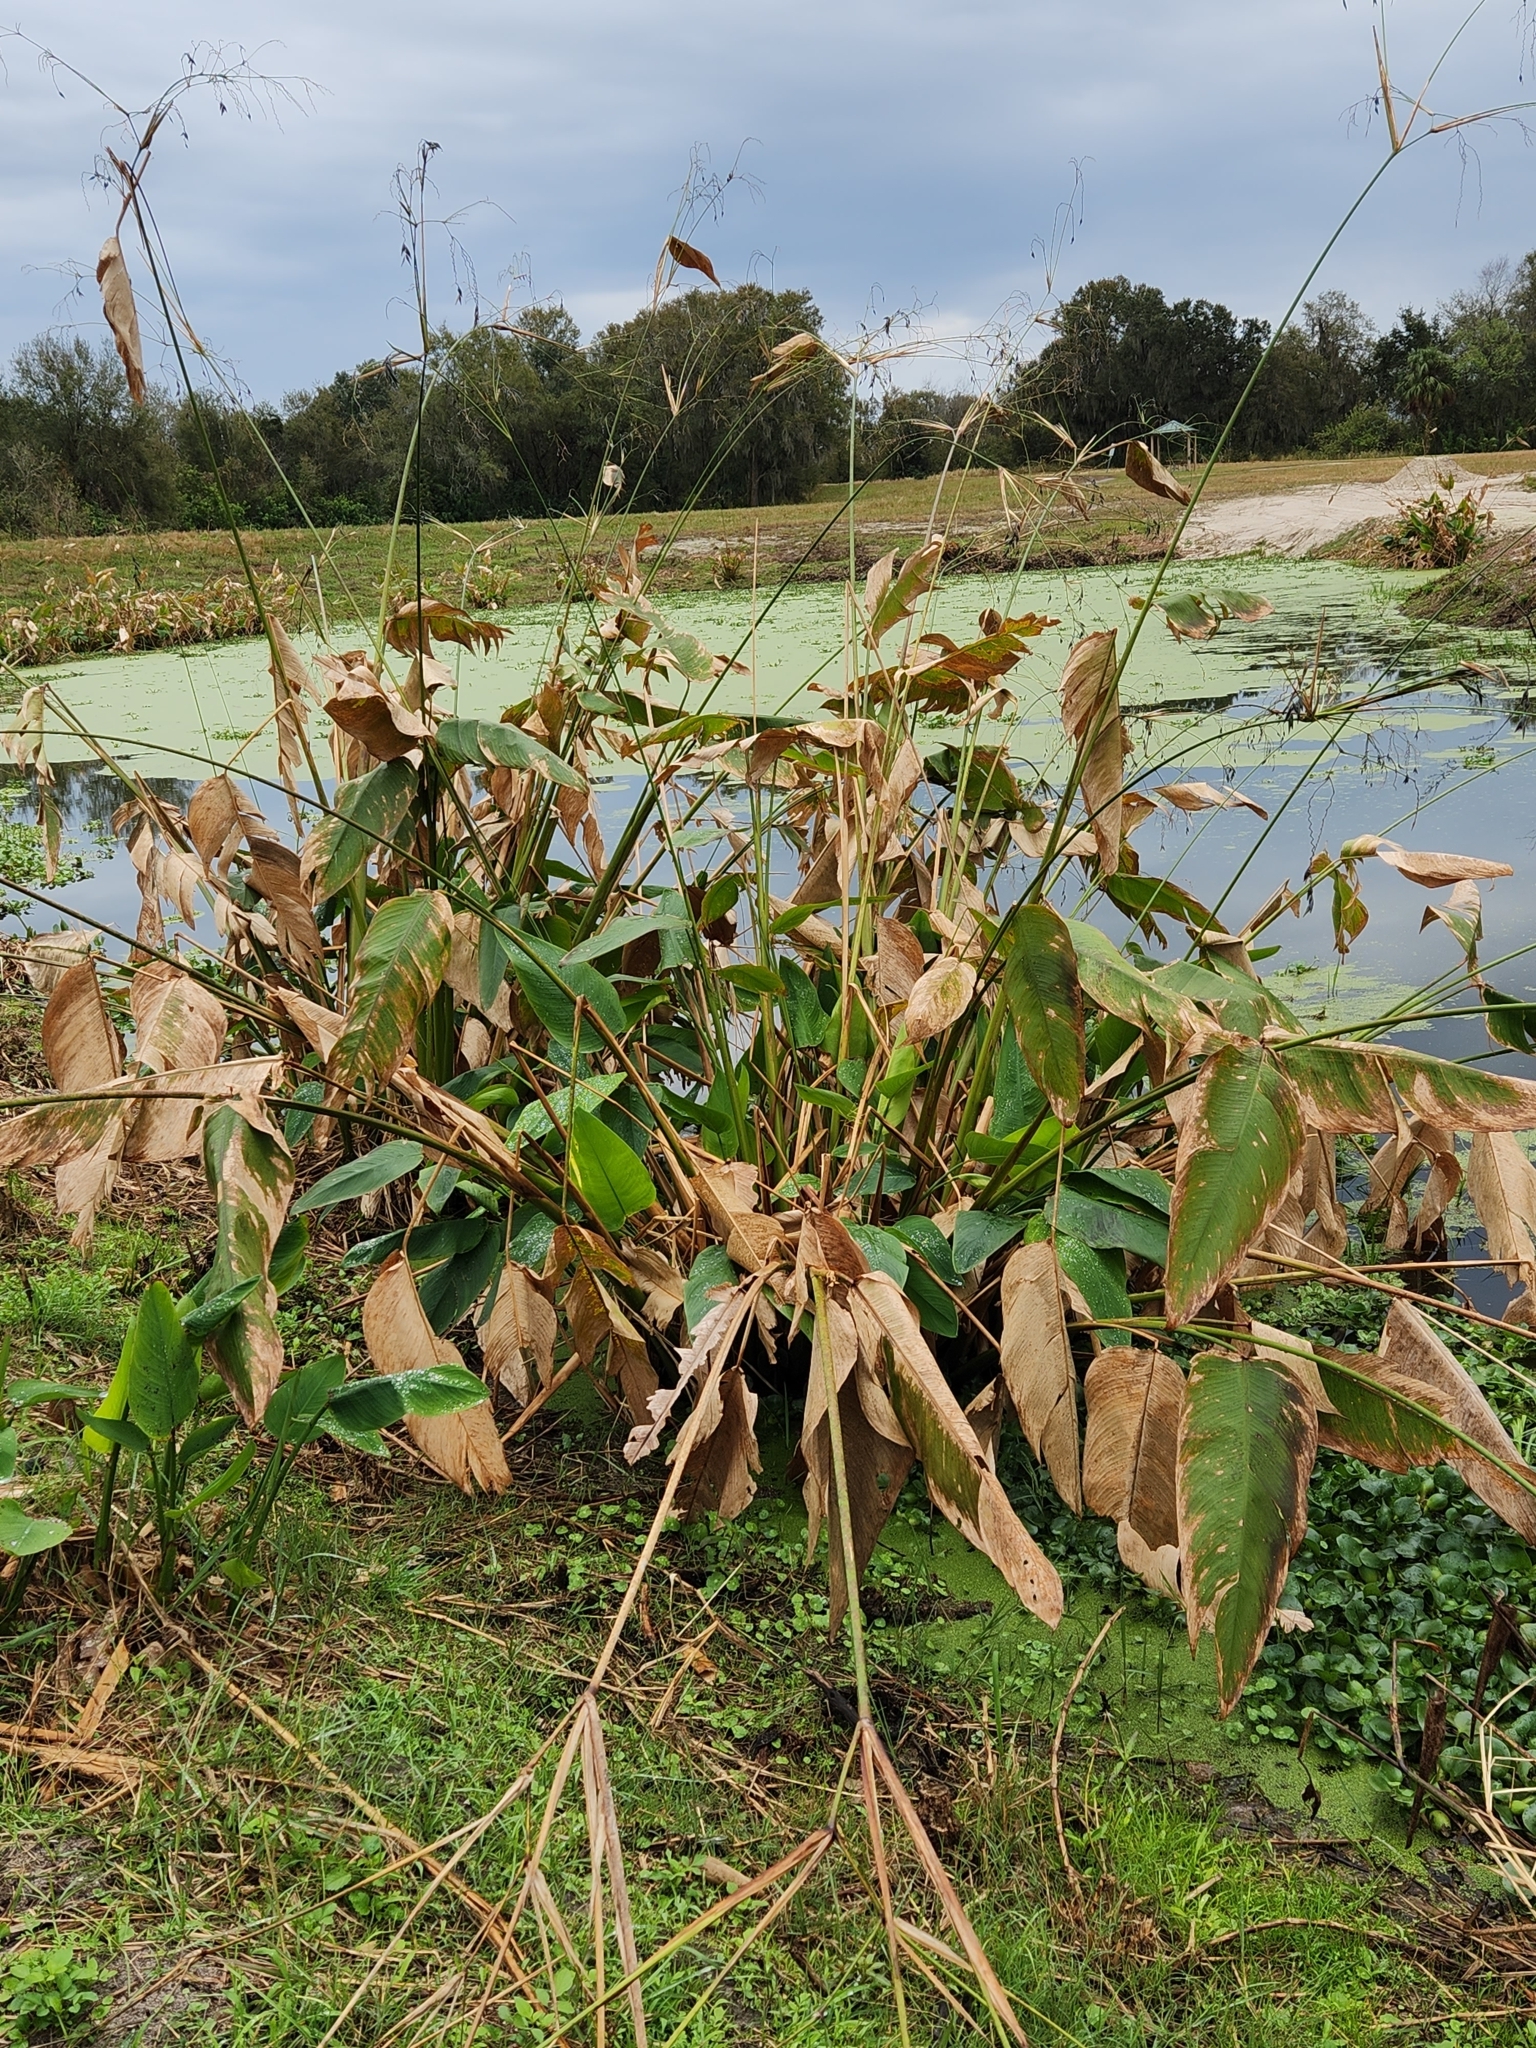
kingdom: Plantae
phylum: Tracheophyta
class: Liliopsida
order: Zingiberales
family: Marantaceae
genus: Thalia
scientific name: Thalia geniculata
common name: Arrowroot
